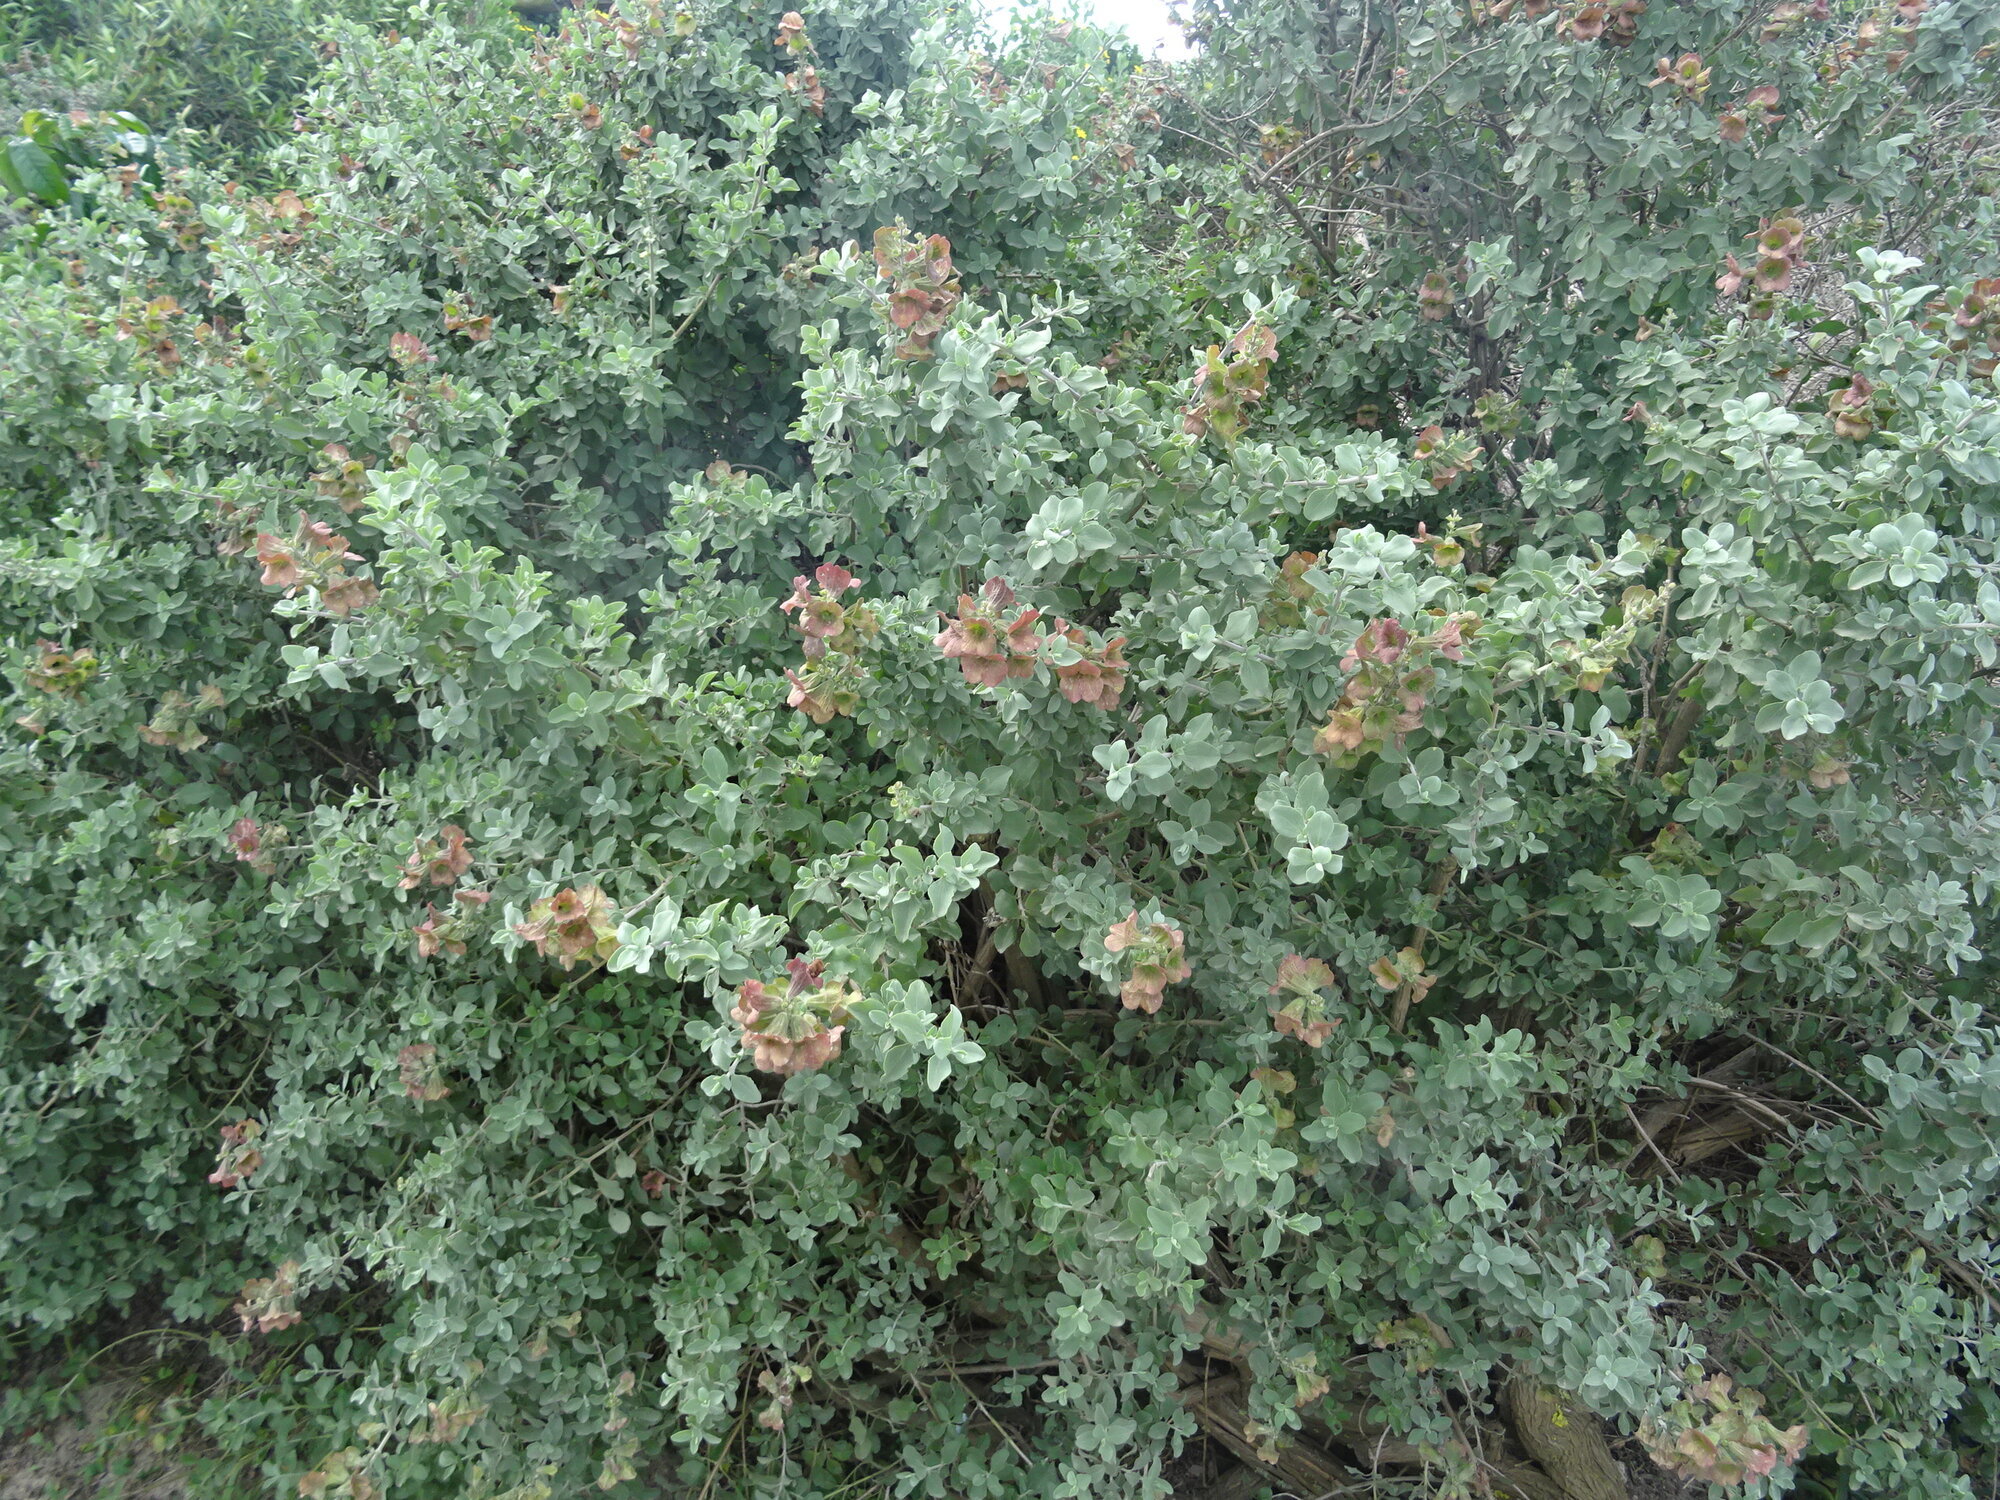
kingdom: Plantae
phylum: Tracheophyta
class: Magnoliopsida
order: Lamiales
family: Lamiaceae
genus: Salvia
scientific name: Salvia aurea
